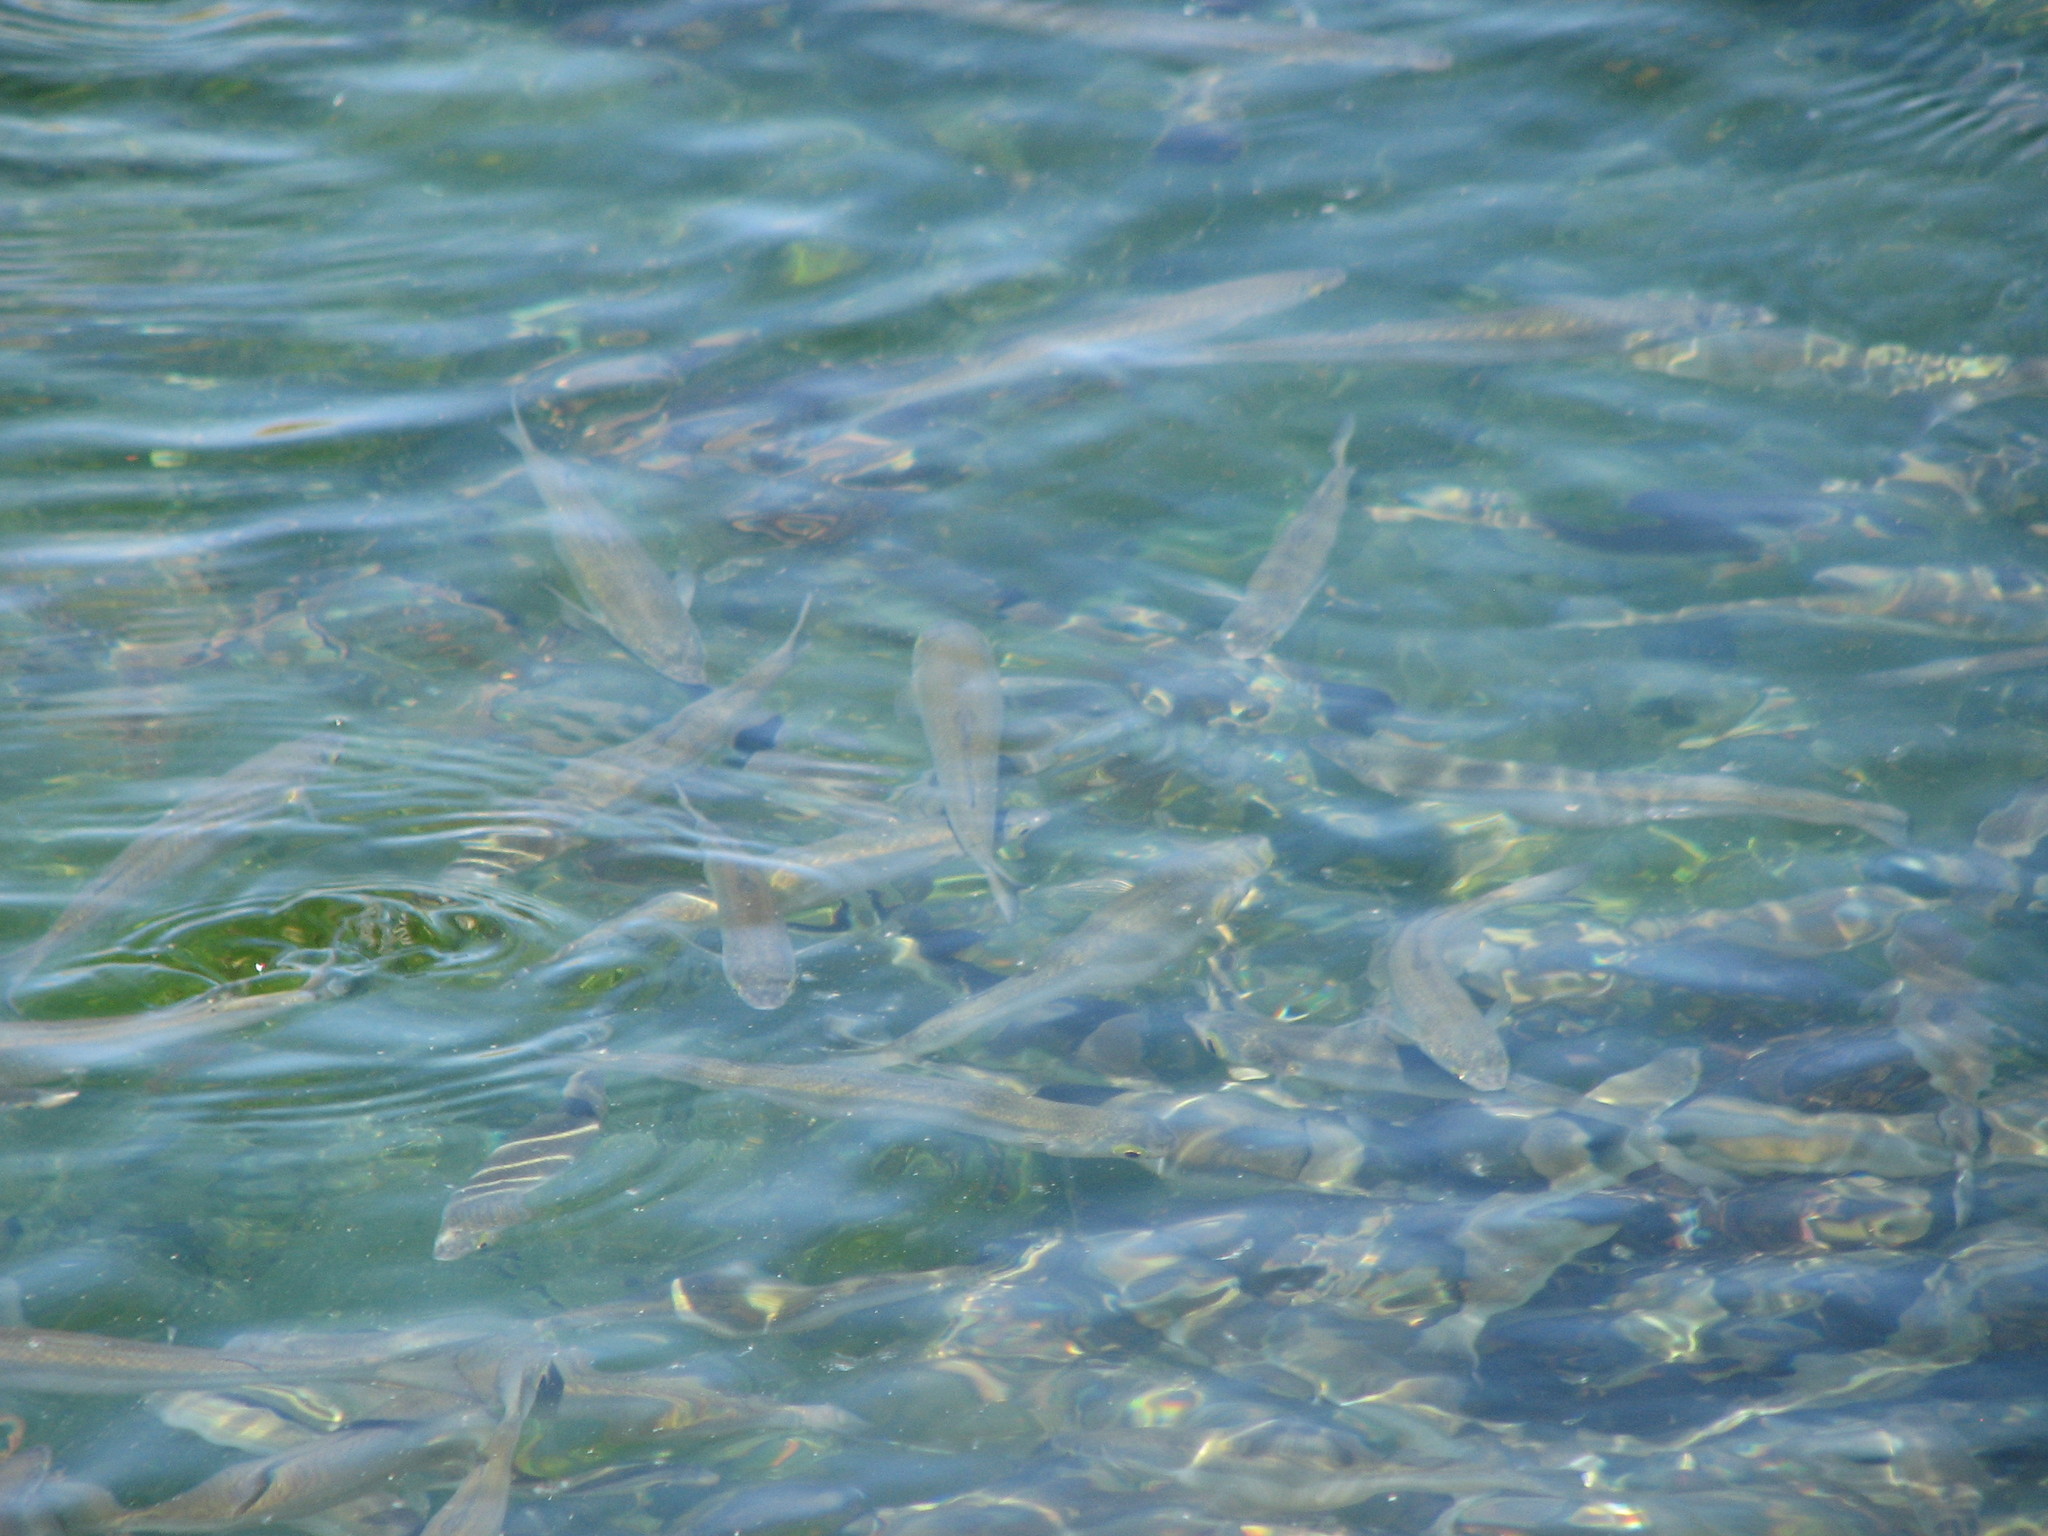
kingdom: Animalia
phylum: Chordata
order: Mugiliformes
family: Mugilidae
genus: Aldrichetta
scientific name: Aldrichetta forsteri
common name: Yellow-eye mullet
